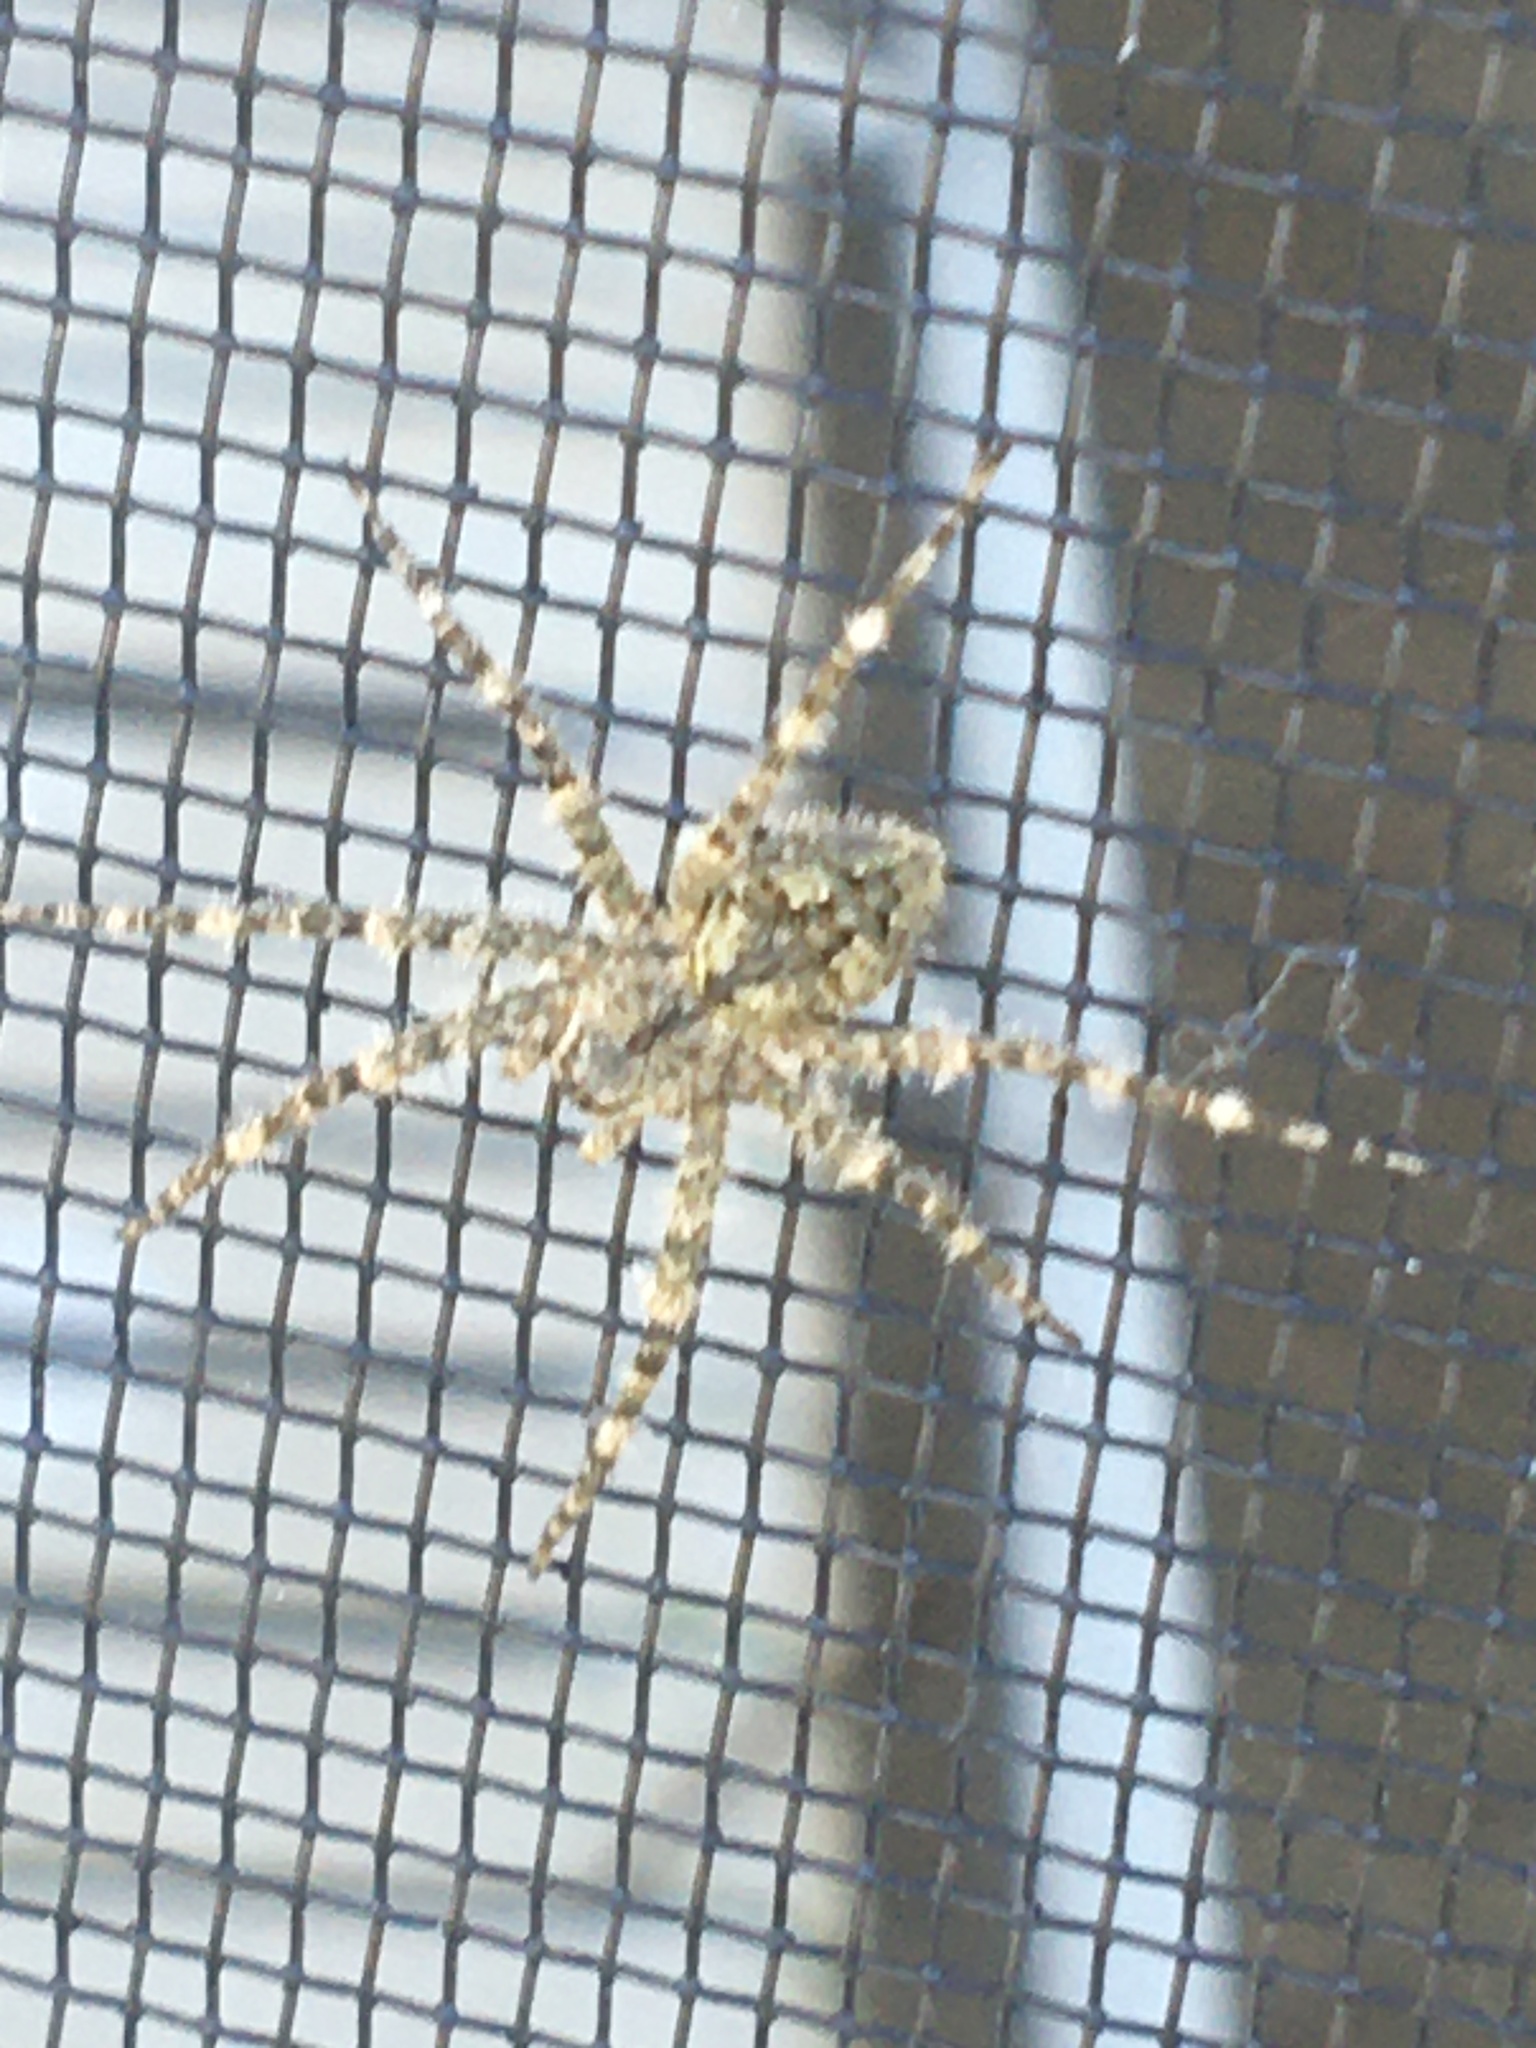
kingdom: Animalia
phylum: Arthropoda
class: Arachnida
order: Araneae
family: Pisauridae
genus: Dolomedes
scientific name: Dolomedes albineus
